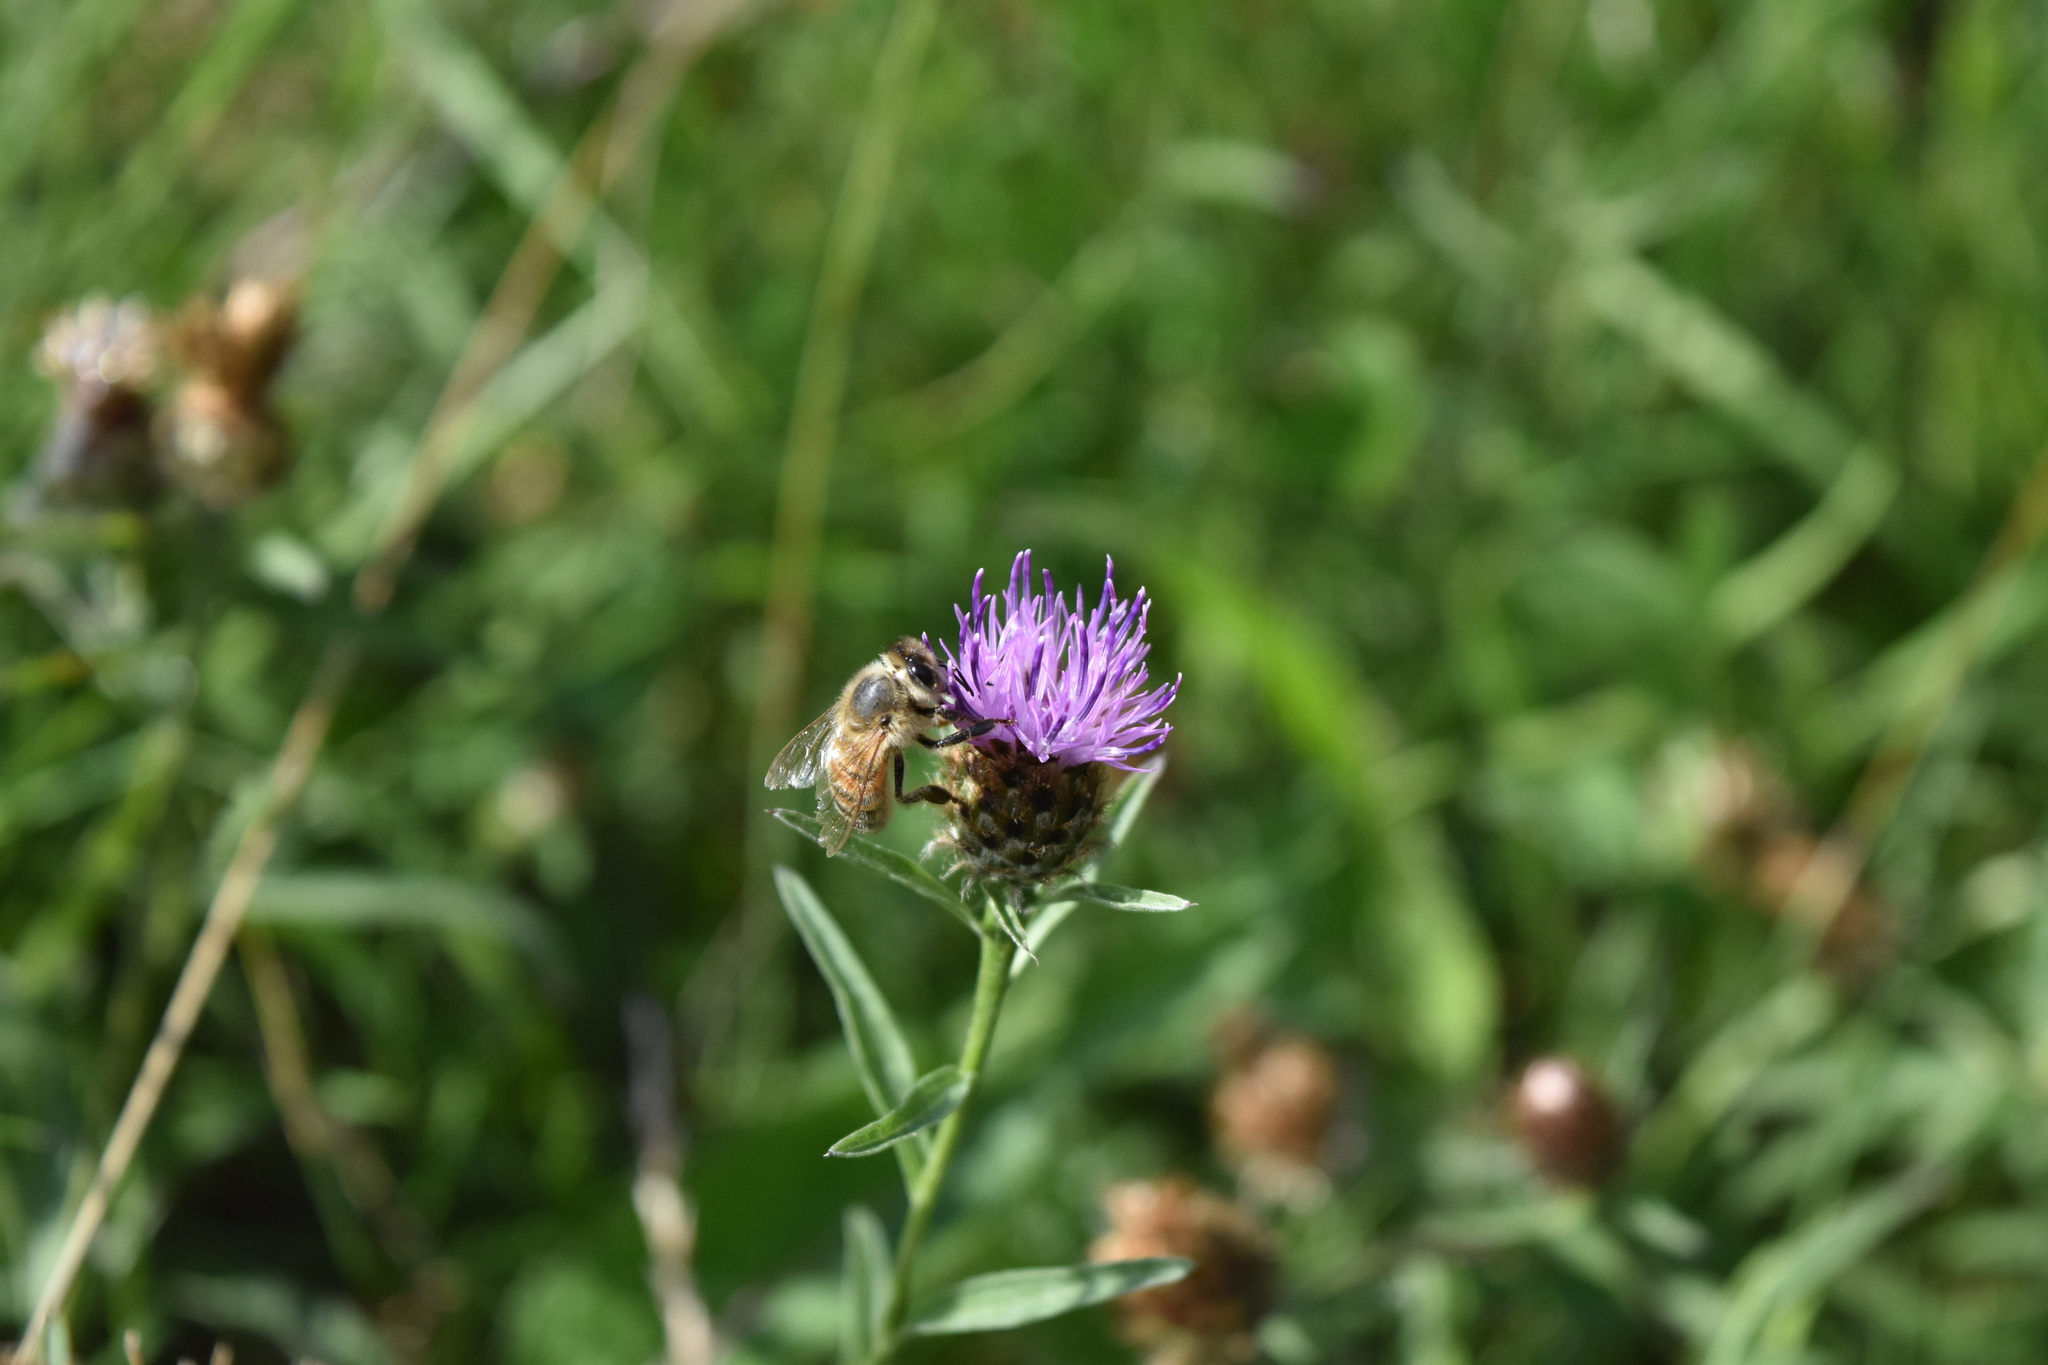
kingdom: Animalia
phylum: Arthropoda
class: Insecta
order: Hymenoptera
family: Apidae
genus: Apis
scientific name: Apis mellifera
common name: Honey bee
